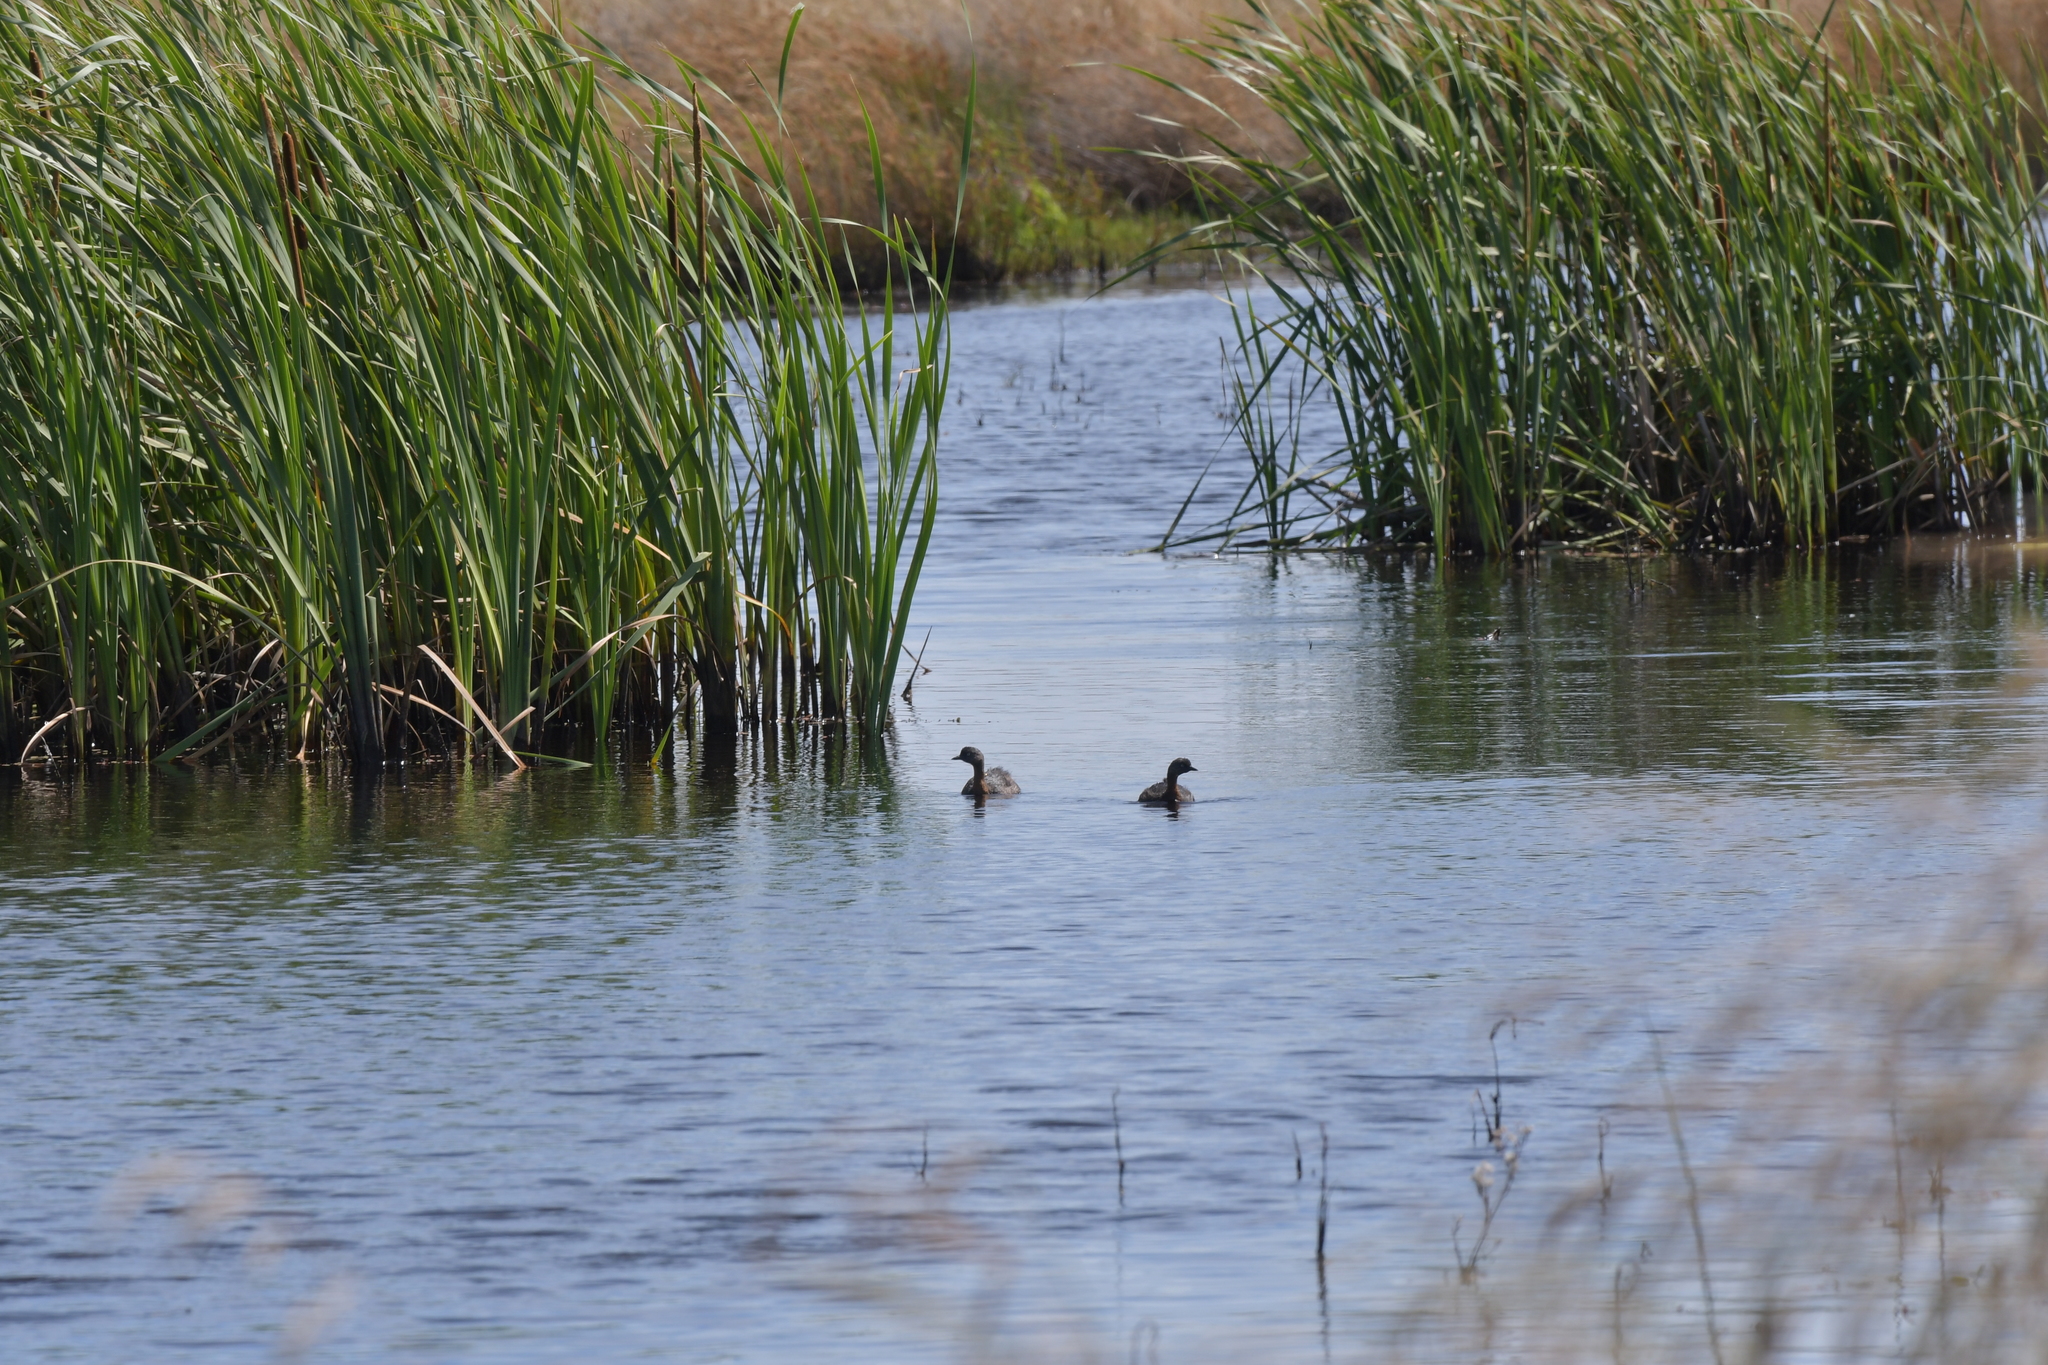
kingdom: Animalia
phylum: Chordata
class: Aves
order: Podicipediformes
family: Podicipedidae
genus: Poliocephalus
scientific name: Poliocephalus rufopectus
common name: New zealand grebe
